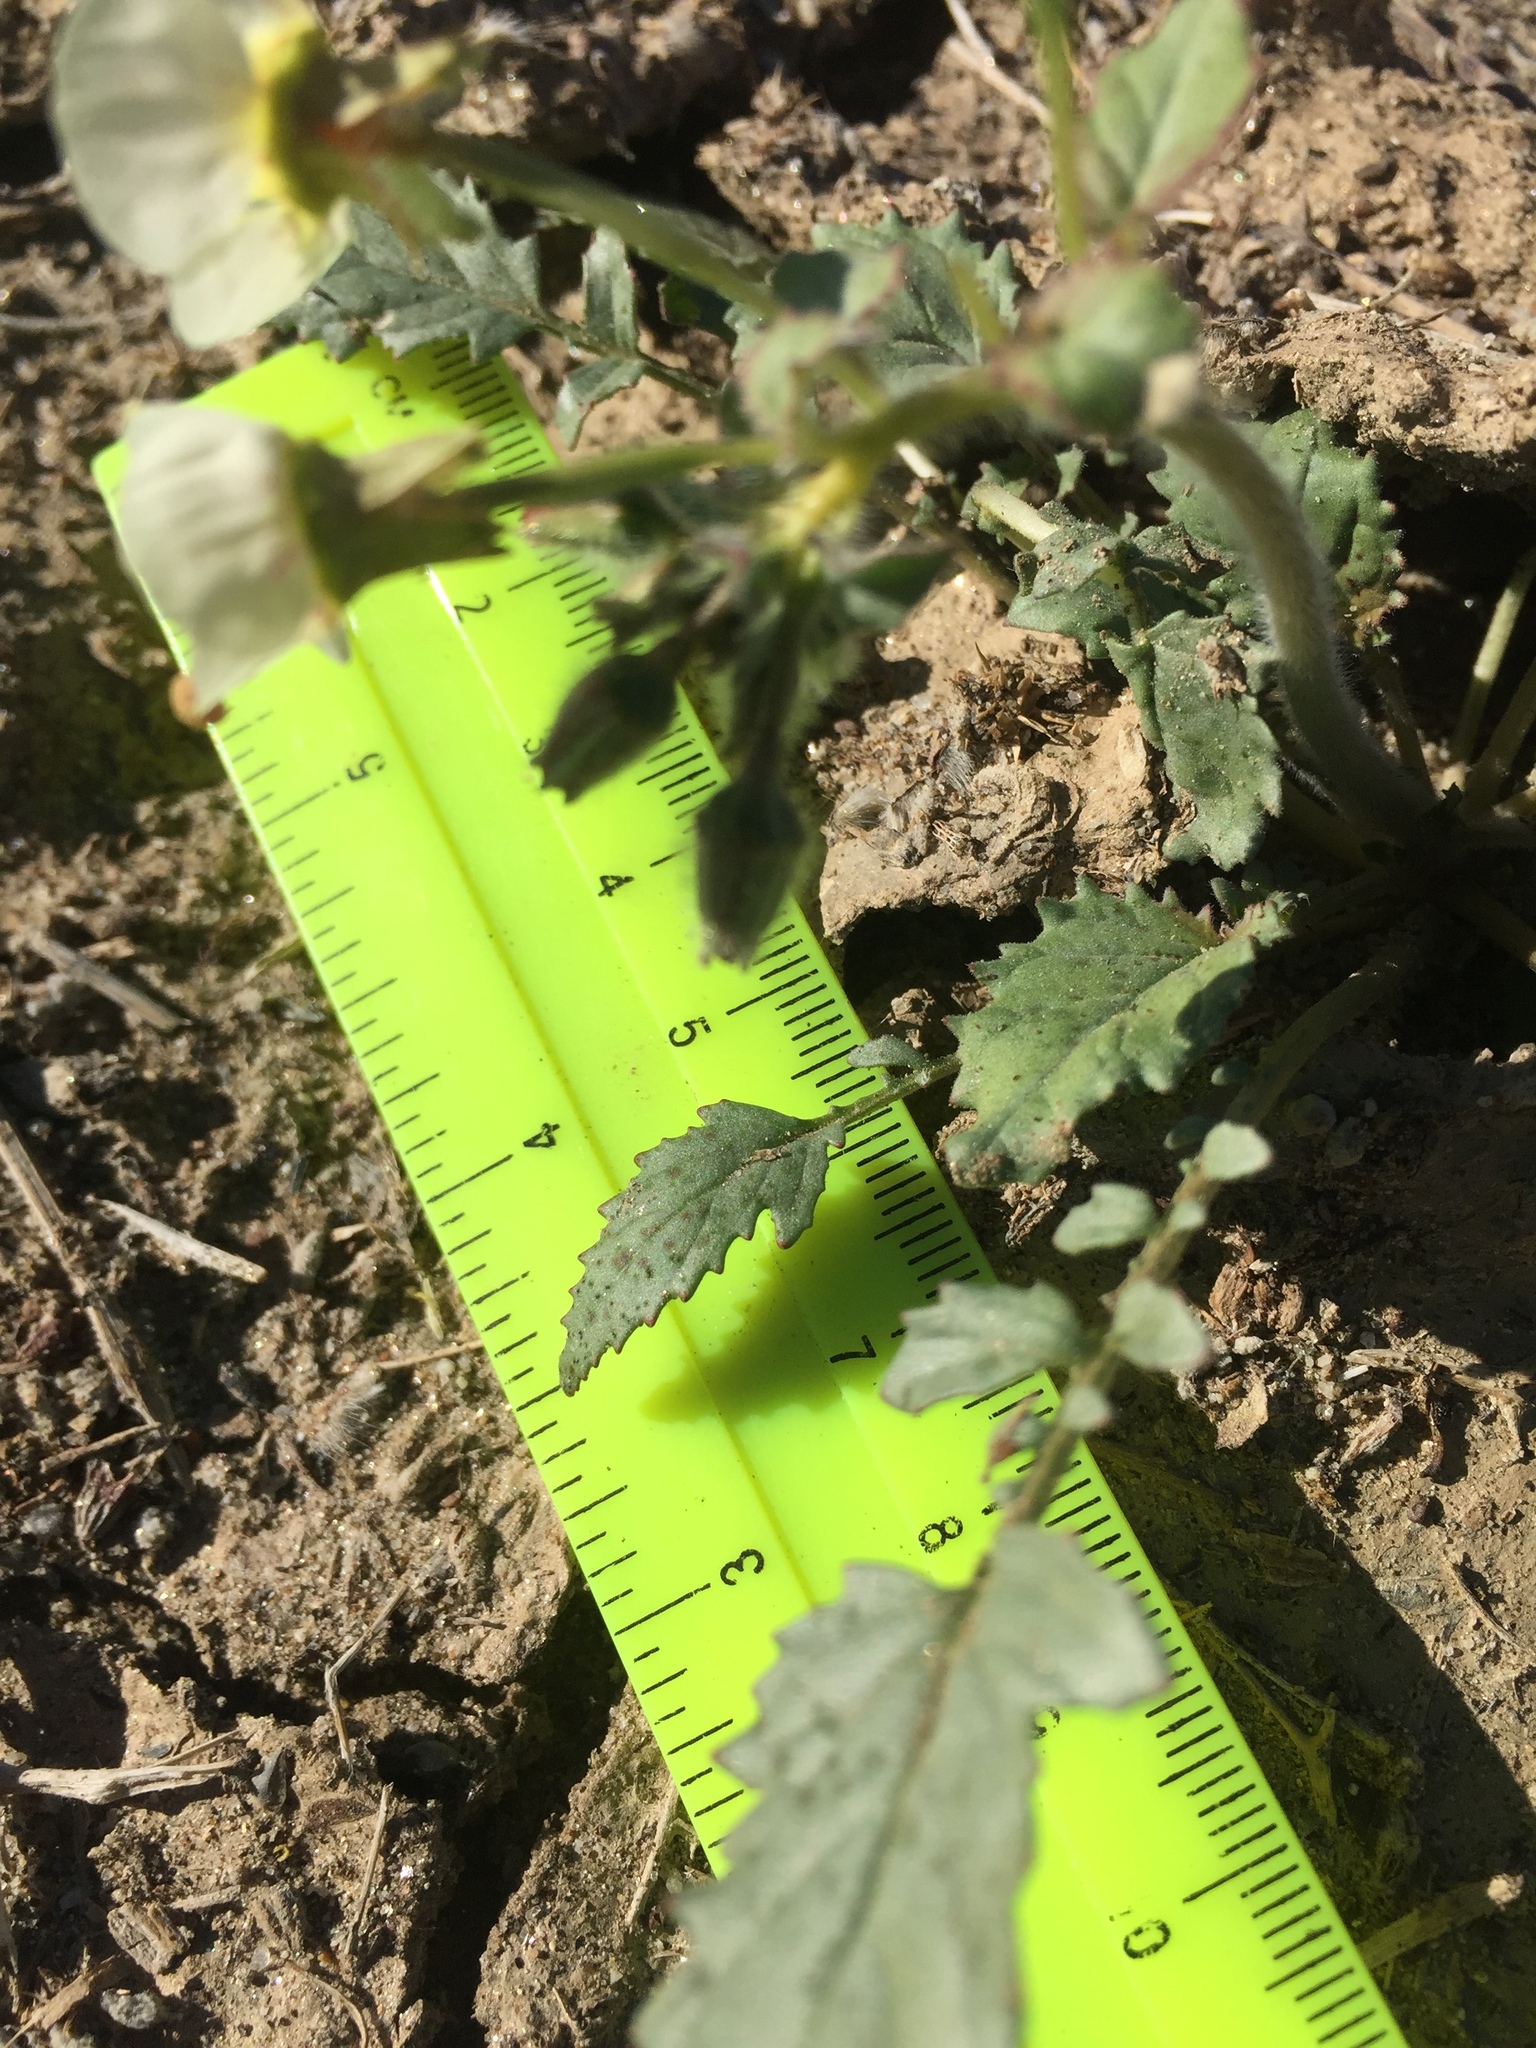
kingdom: Plantae
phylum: Tracheophyta
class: Magnoliopsida
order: Myrtales
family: Onagraceae
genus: Chylismia
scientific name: Chylismia claviformis
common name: Browneyes
